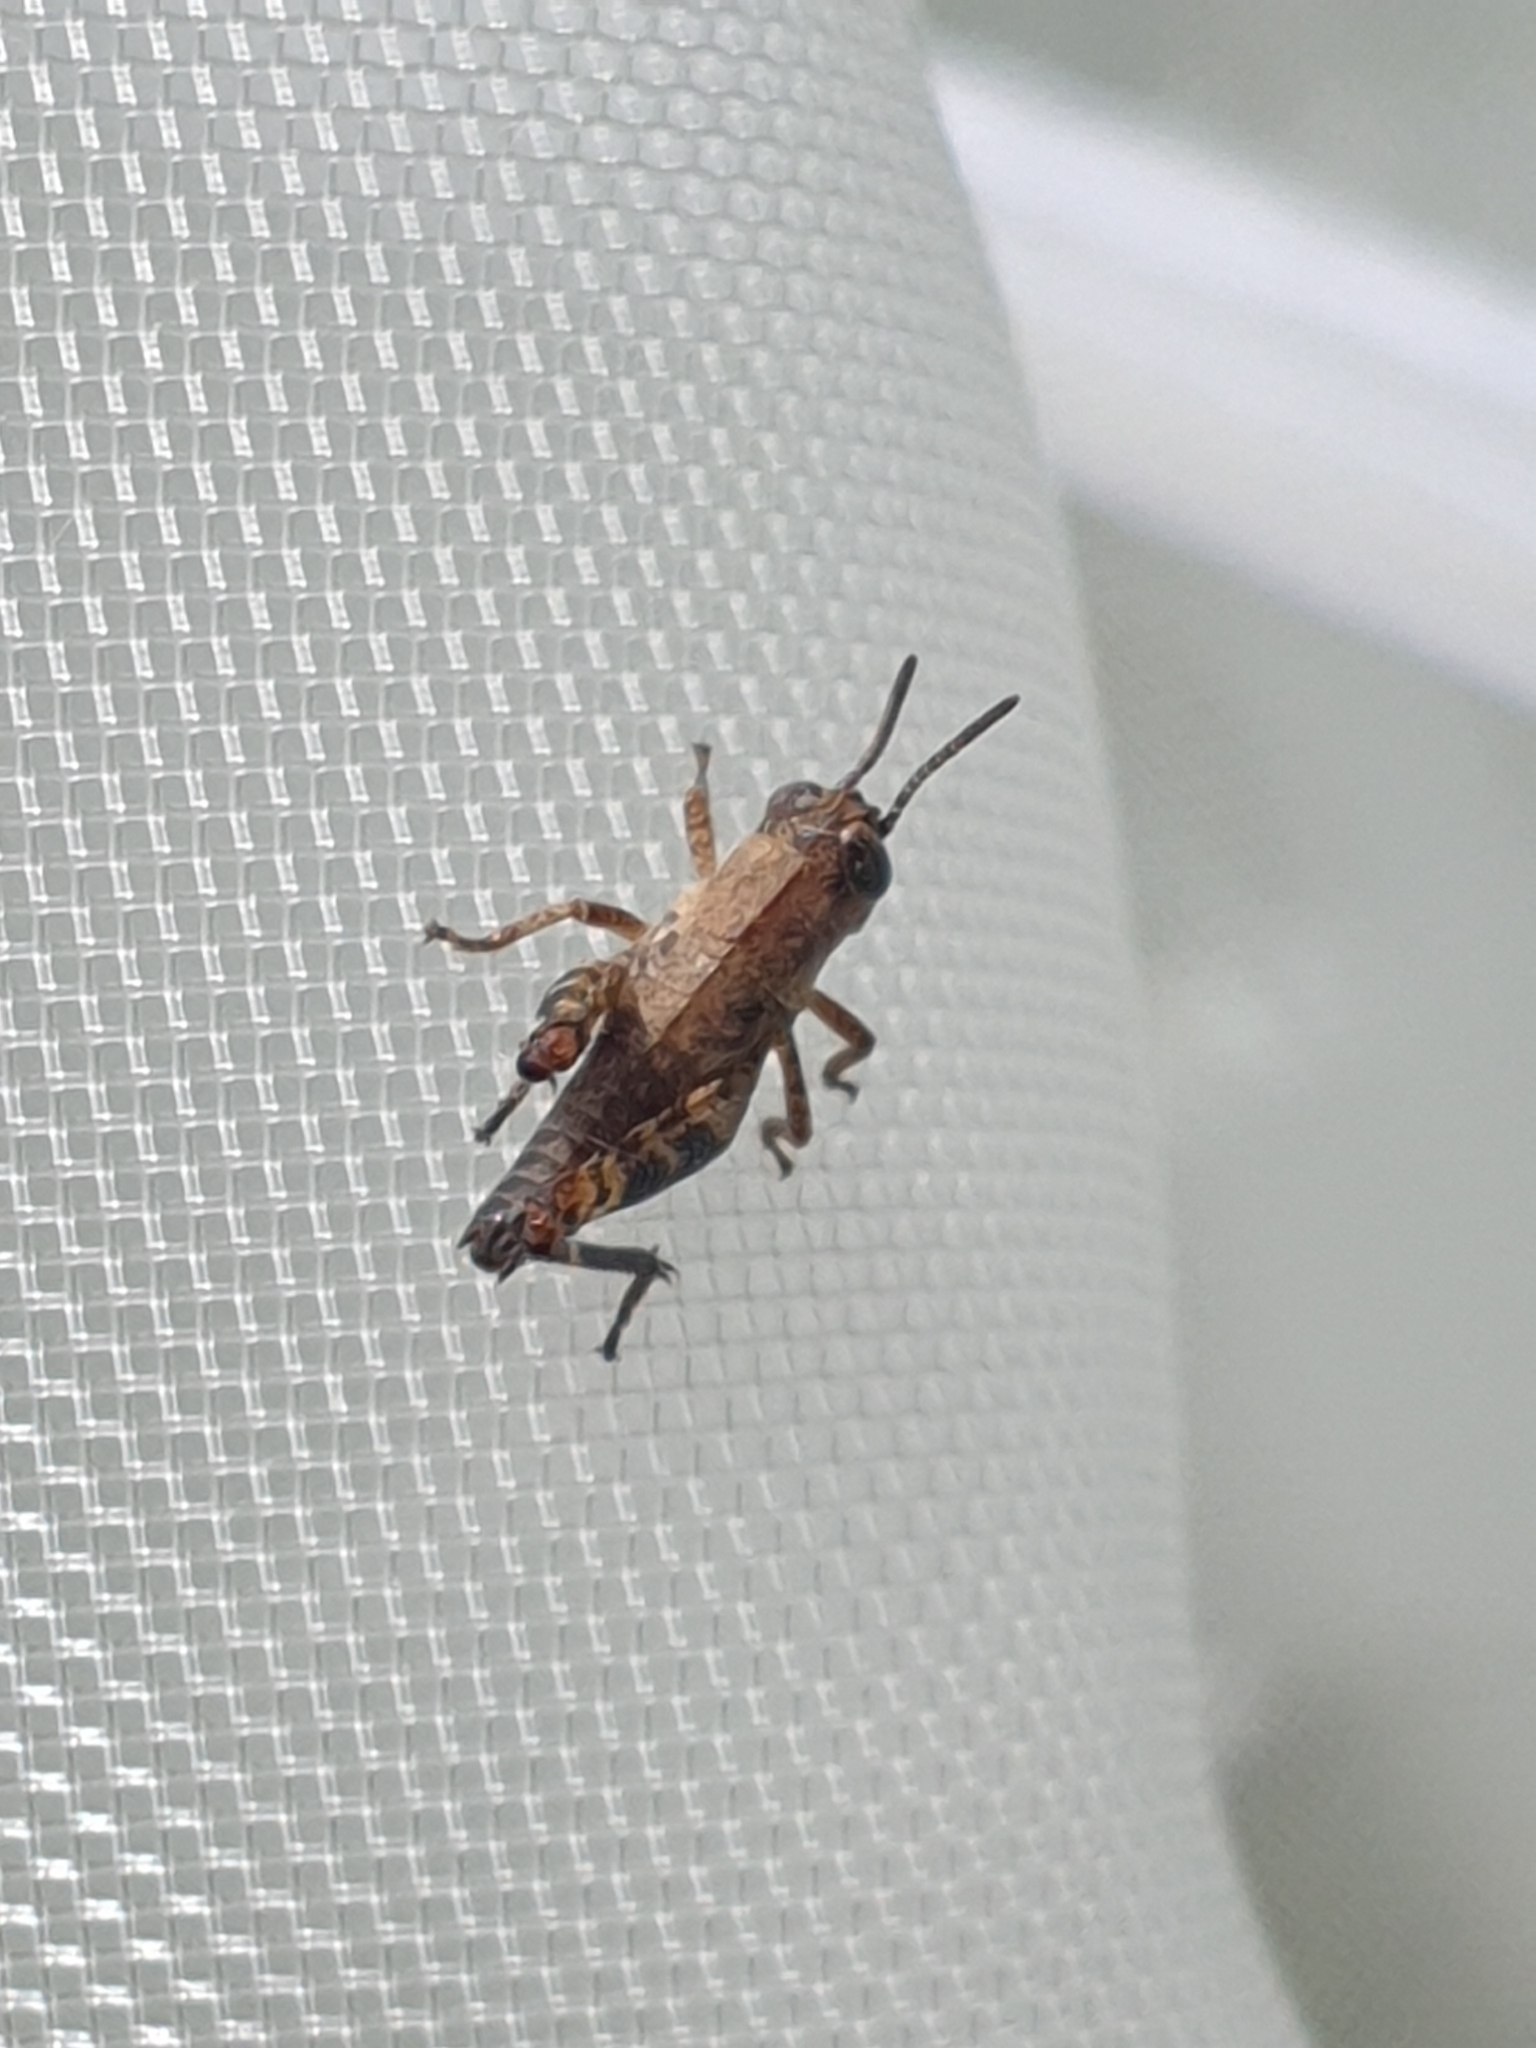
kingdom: Animalia
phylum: Arthropoda
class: Insecta
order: Orthoptera
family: Acrididae
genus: Calliptamus
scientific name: Calliptamus italicus
